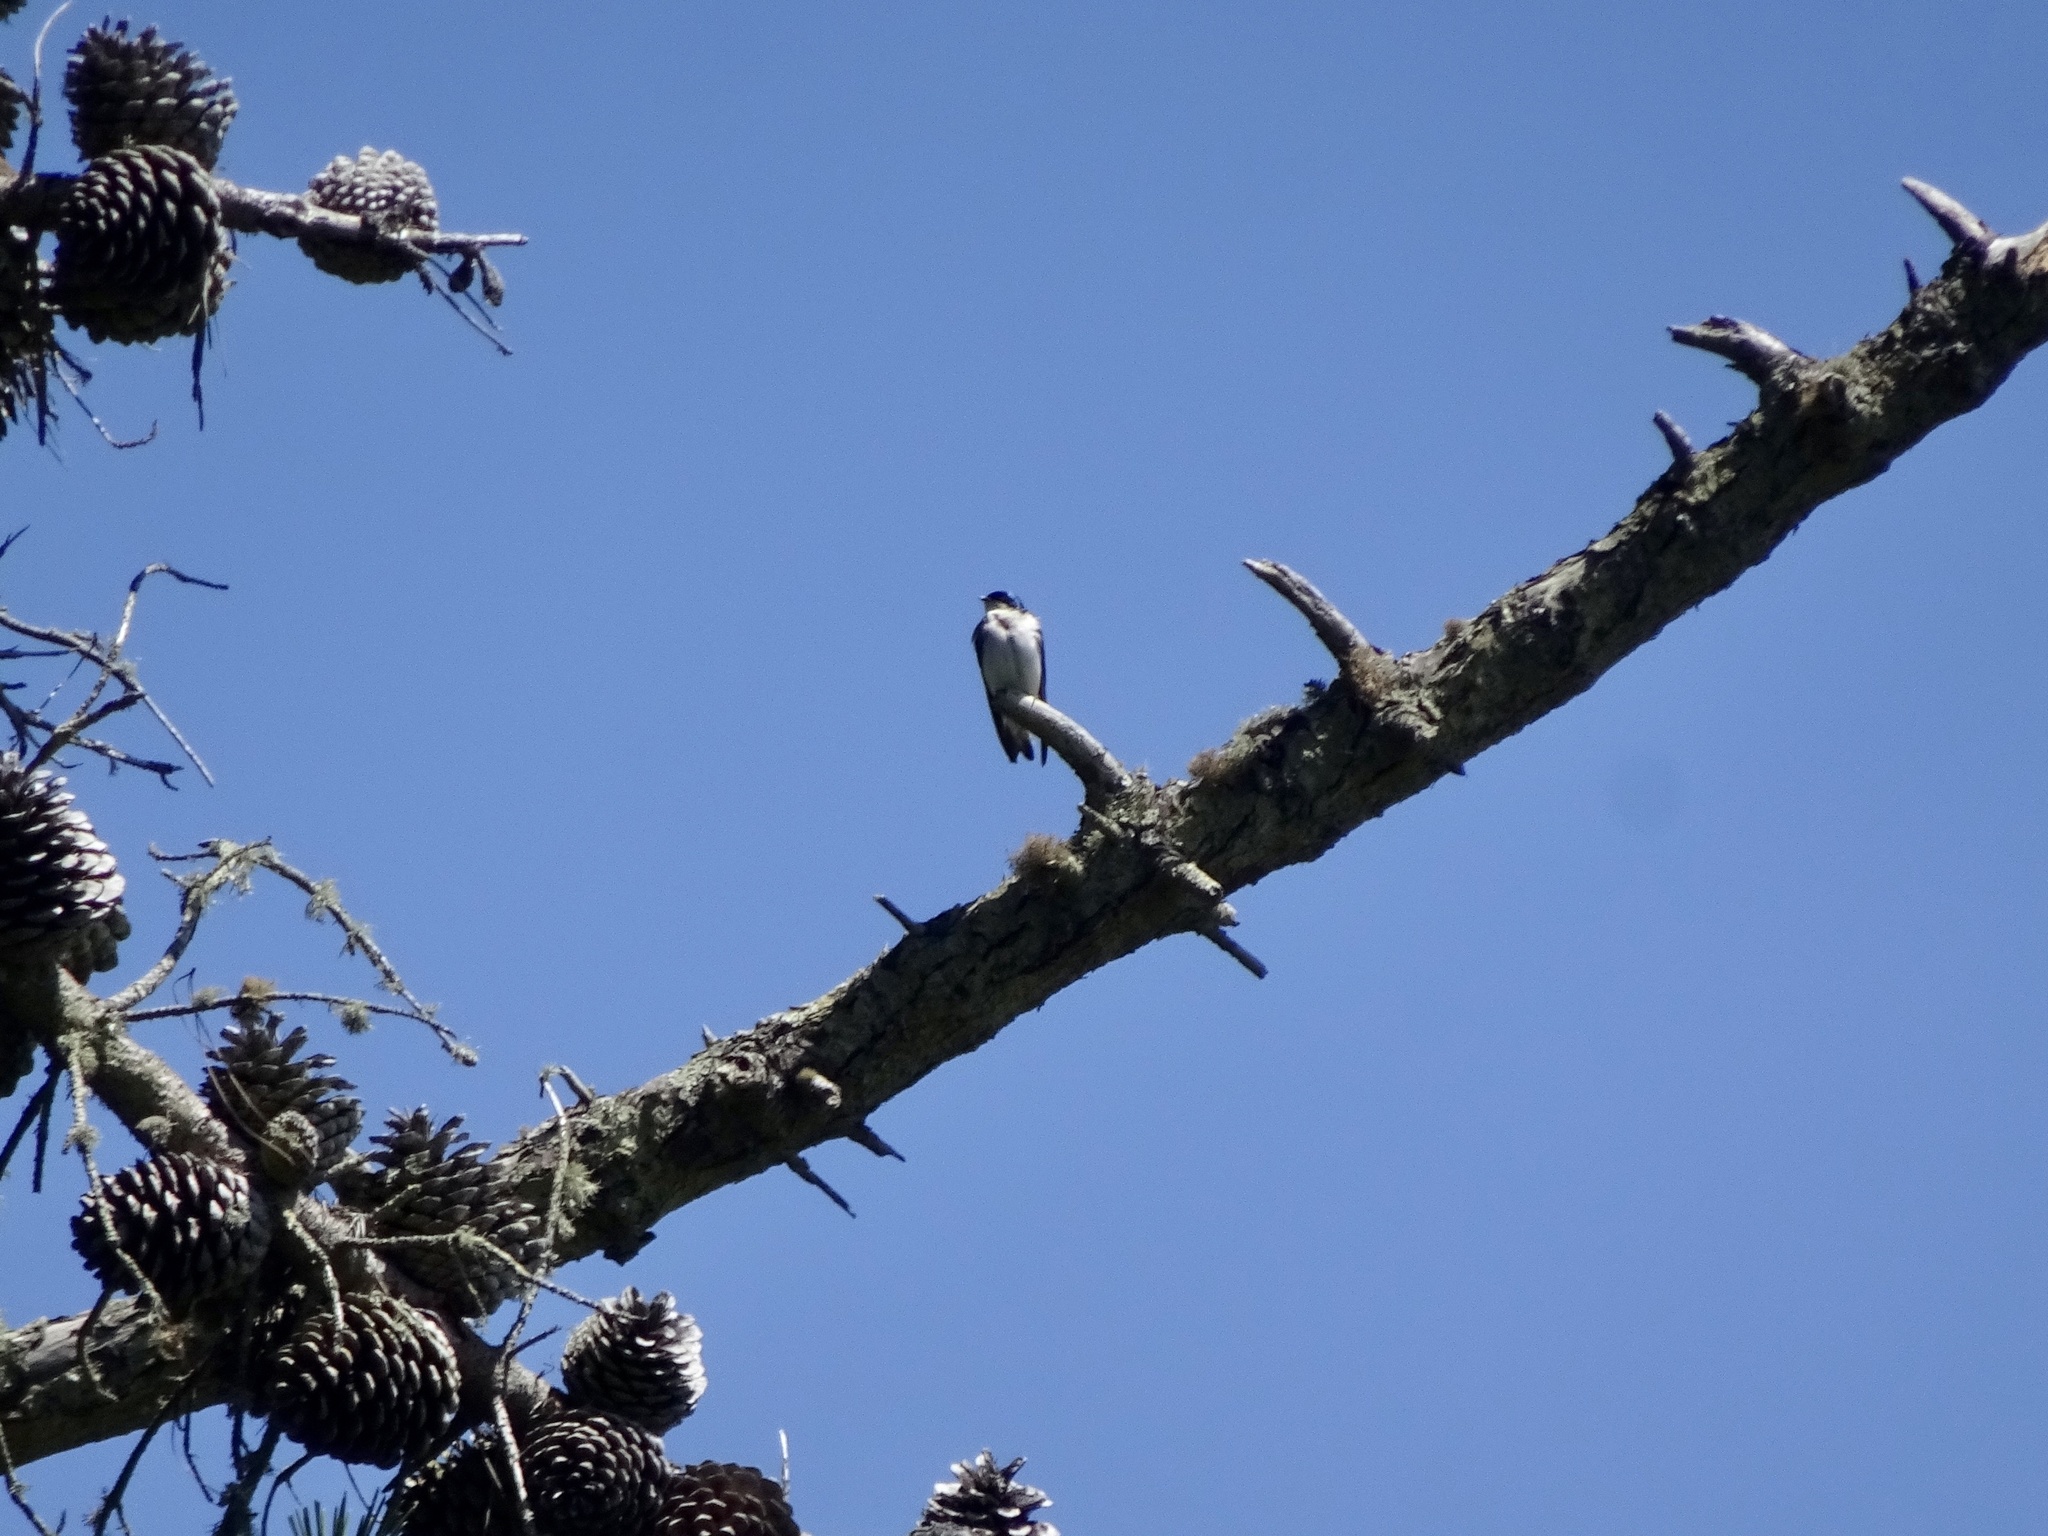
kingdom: Animalia
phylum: Chordata
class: Aves
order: Passeriformes
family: Hirundinidae
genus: Tachycineta
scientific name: Tachycineta bicolor
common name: Tree swallow
